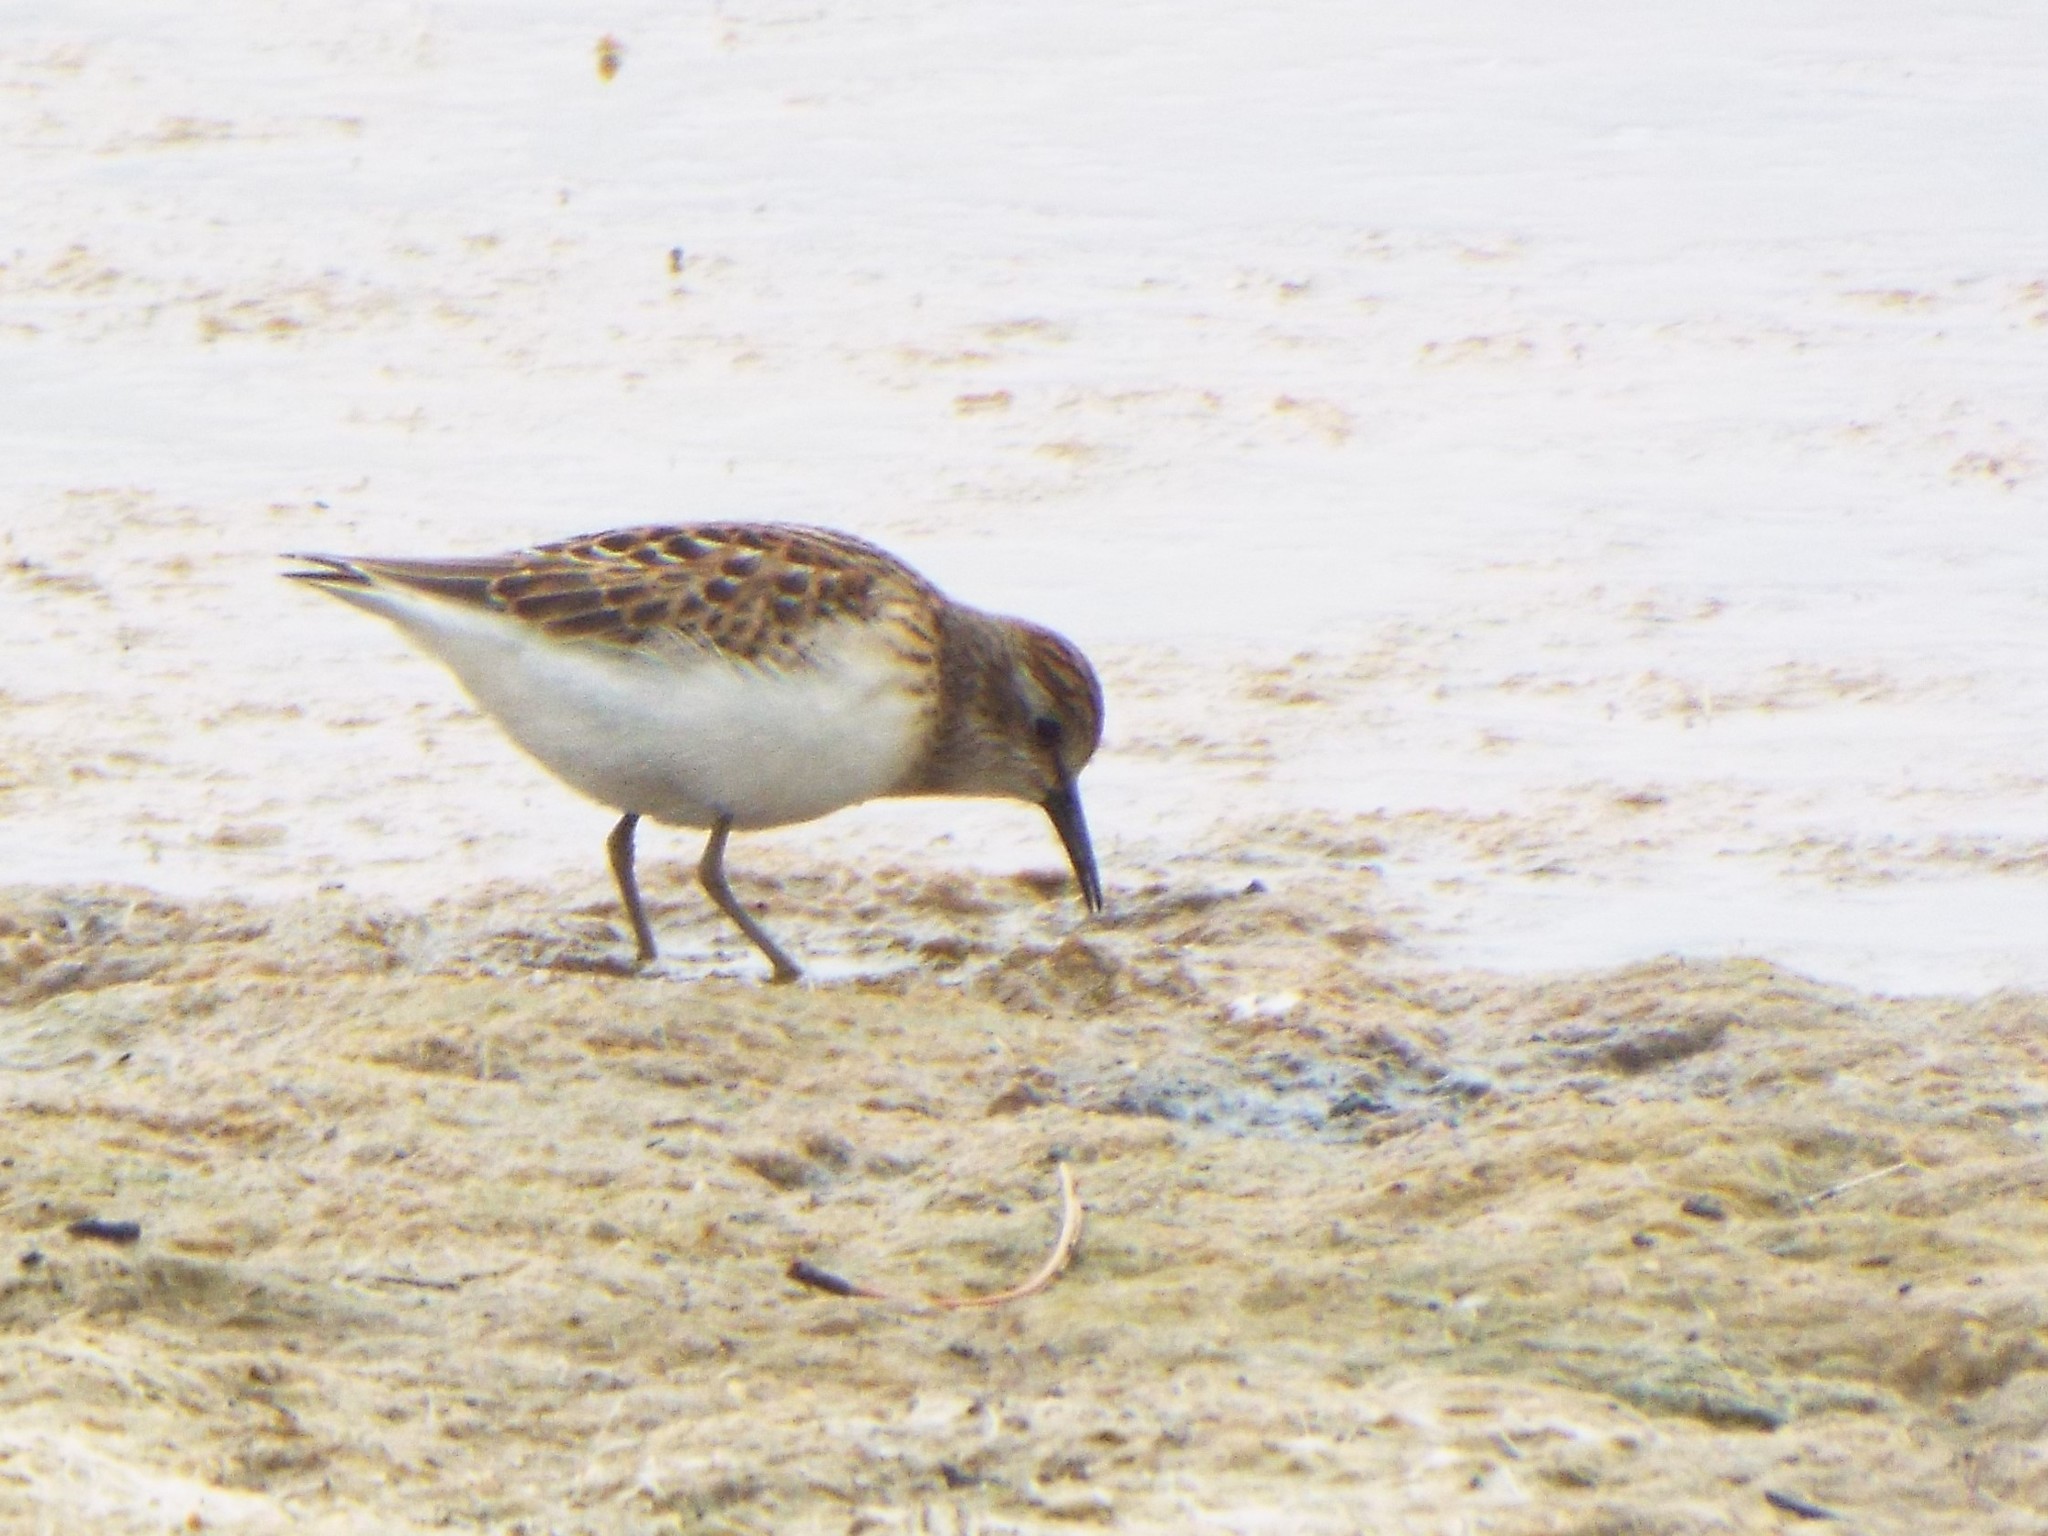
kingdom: Animalia
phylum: Chordata
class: Aves
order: Charadriiformes
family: Scolopacidae
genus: Calidris
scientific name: Calidris minutilla
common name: Least sandpiper
